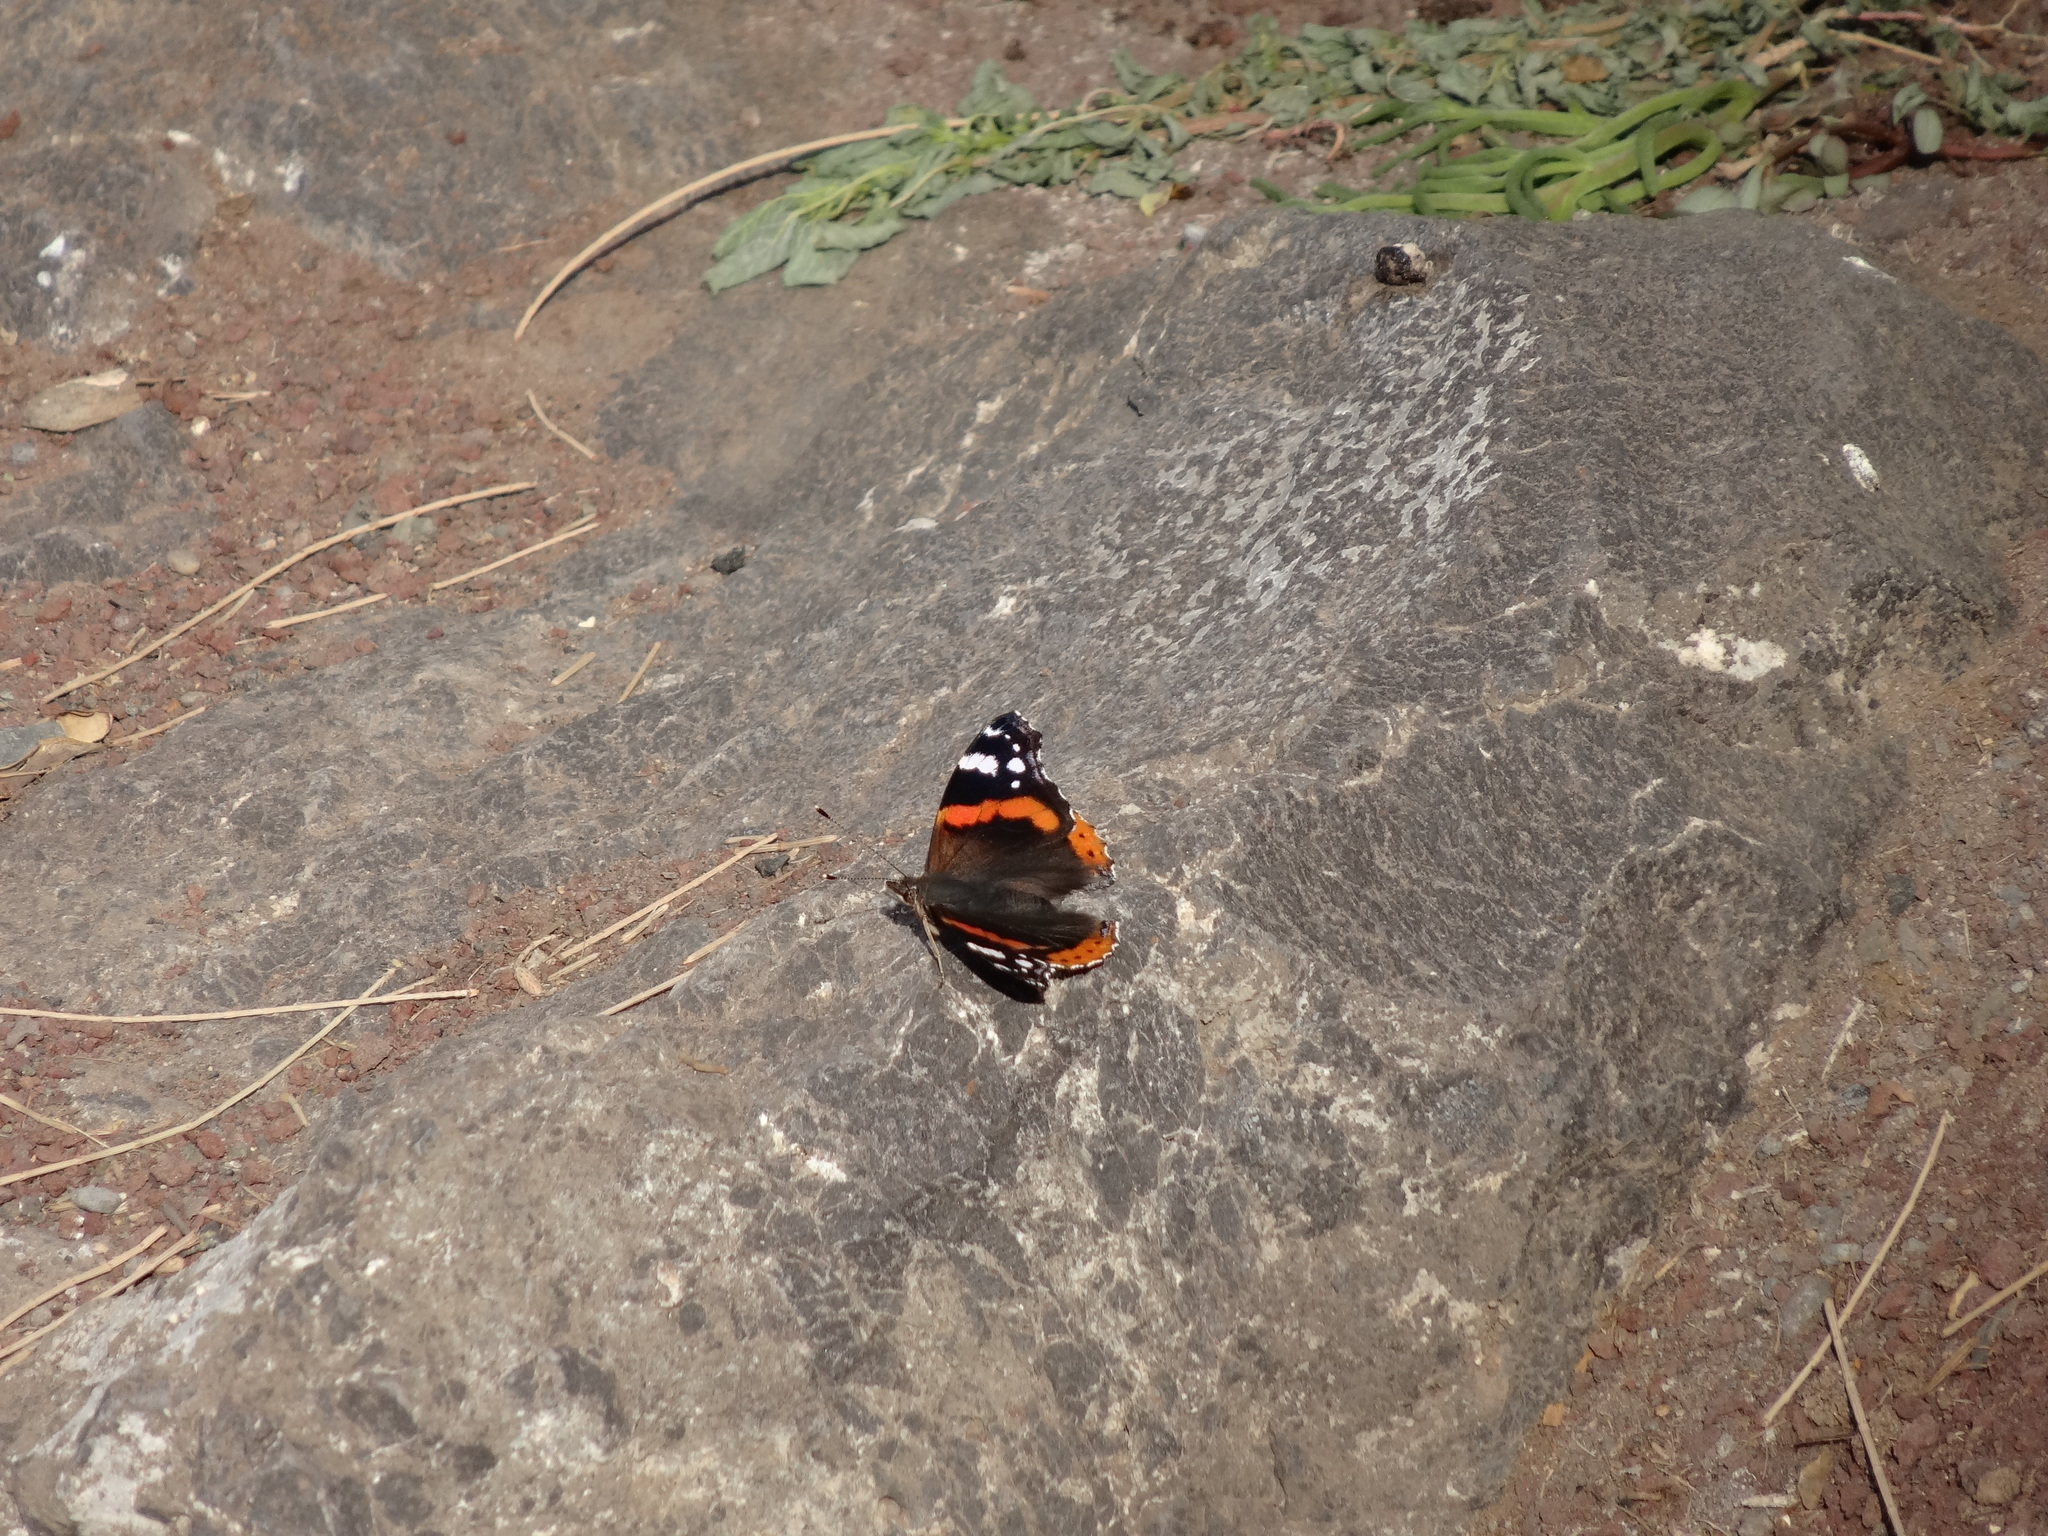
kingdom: Animalia
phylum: Arthropoda
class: Insecta
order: Lepidoptera
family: Nymphalidae
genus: Vanessa
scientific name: Vanessa atalanta
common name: Red admiral
